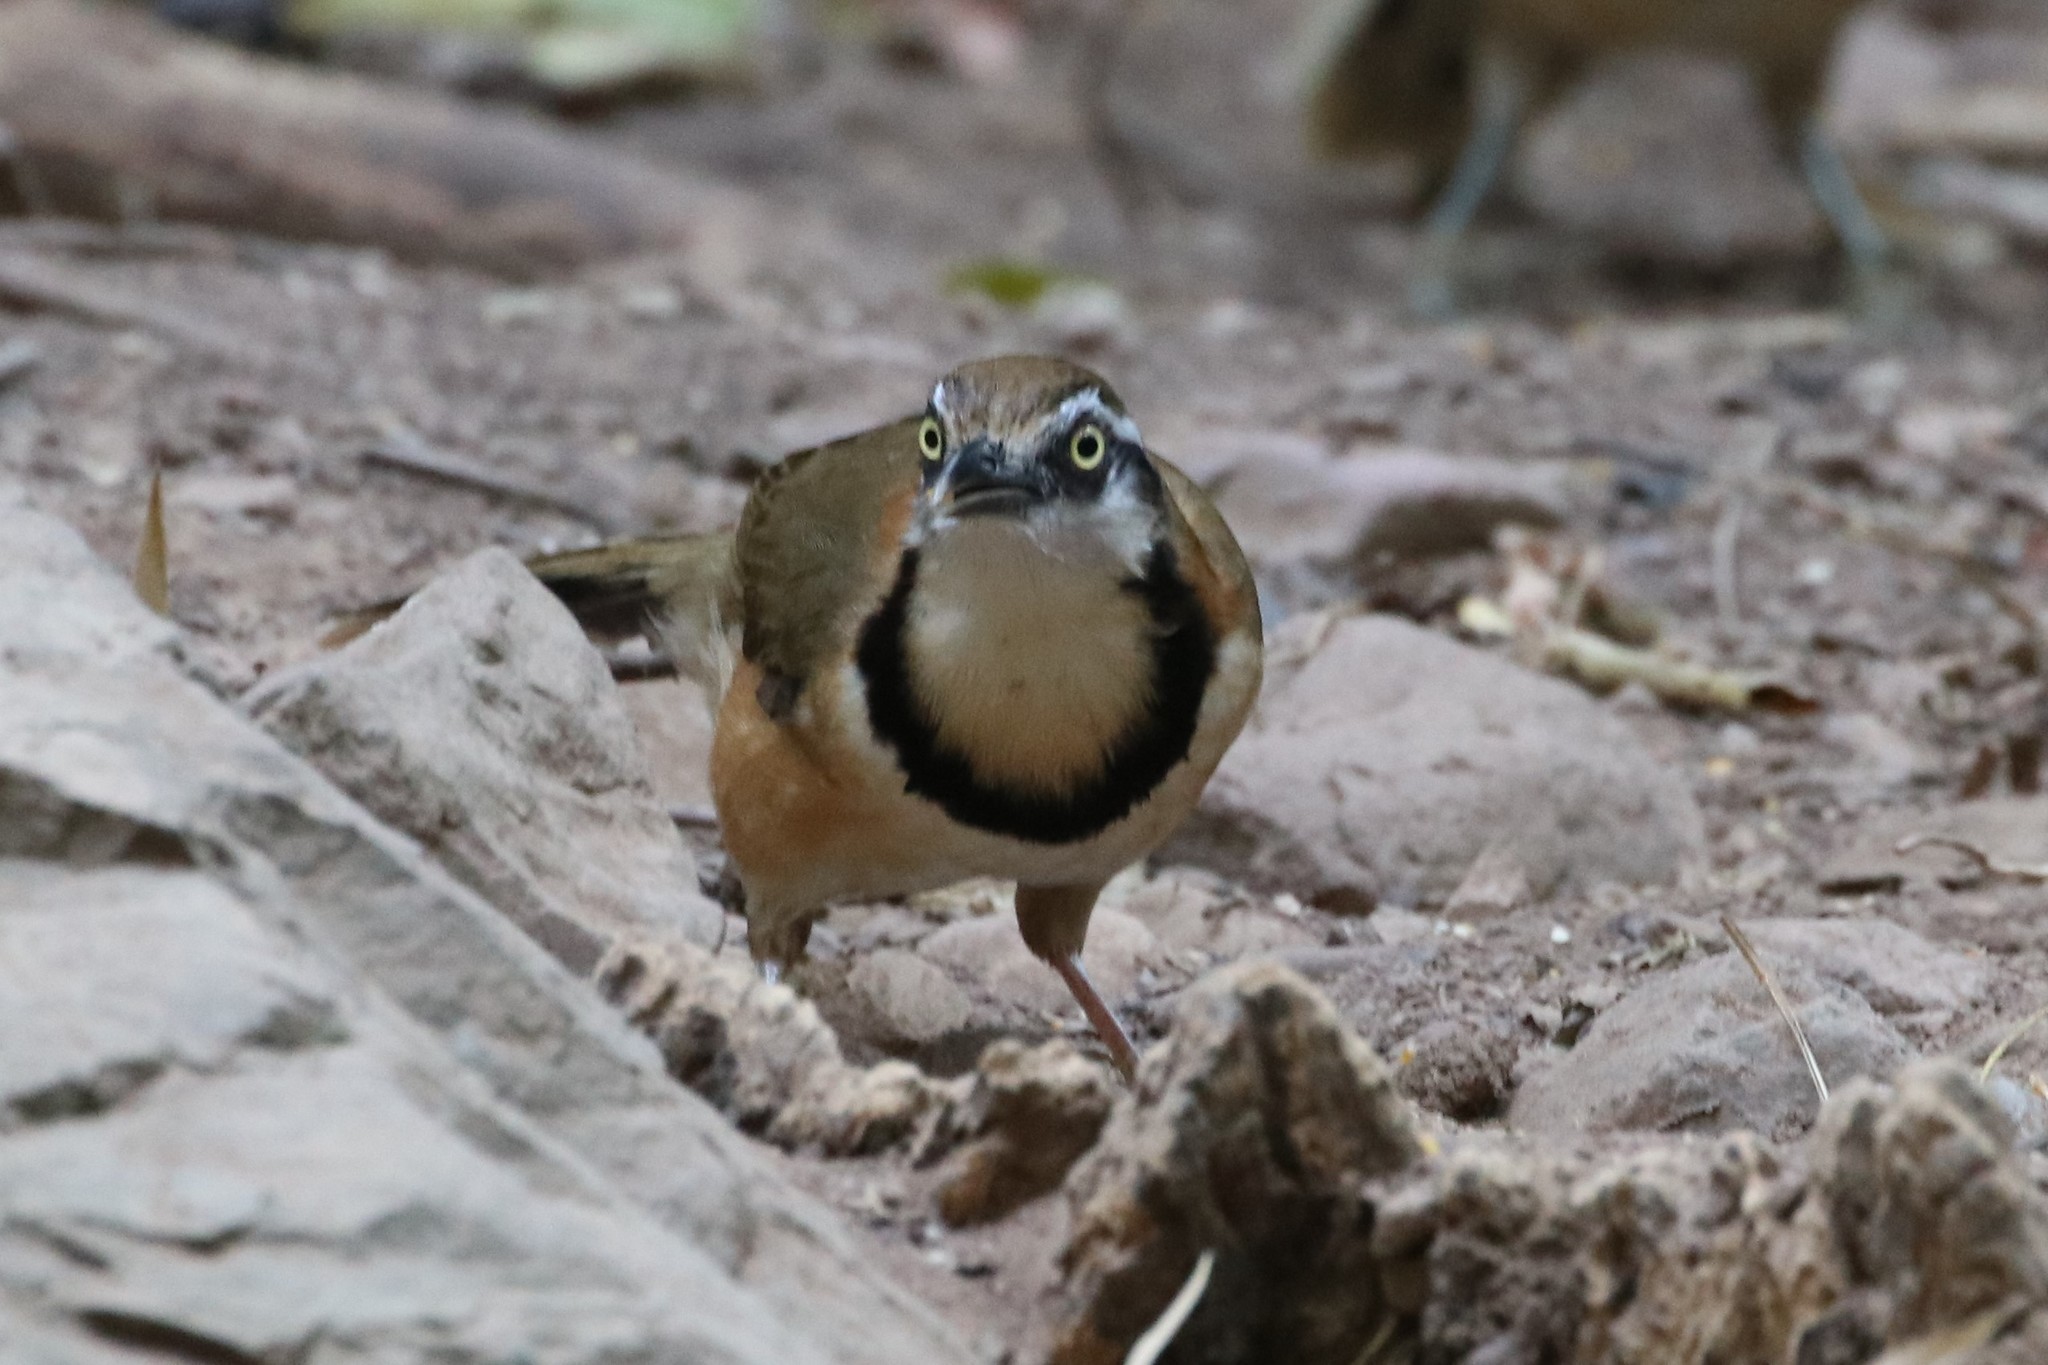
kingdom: Animalia
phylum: Chordata
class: Aves
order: Passeriformes
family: Leiothrichidae
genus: Garrulax
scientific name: Garrulax monileger
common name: Lesser necklaced laughingthrush
